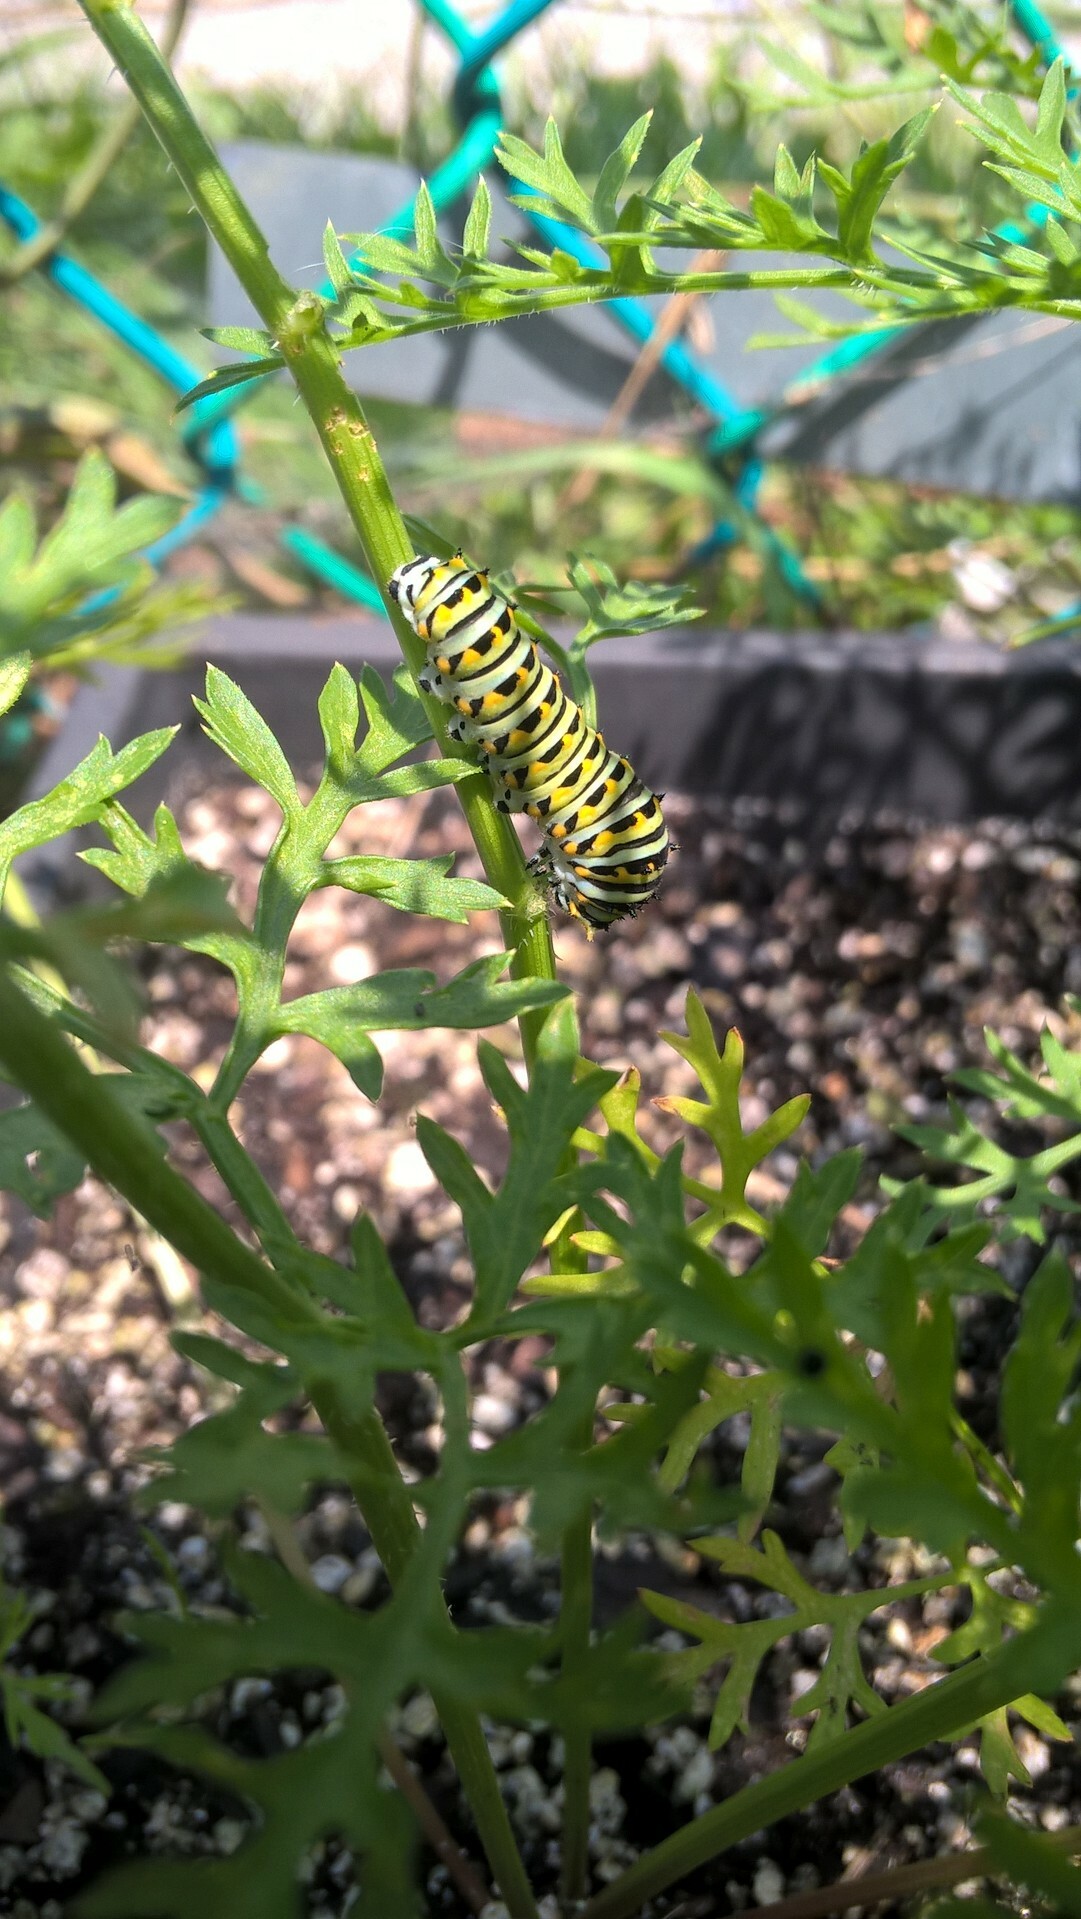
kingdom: Animalia
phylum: Arthropoda
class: Insecta
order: Lepidoptera
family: Papilionidae
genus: Papilio
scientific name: Papilio polyxenes
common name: Black swallowtail
